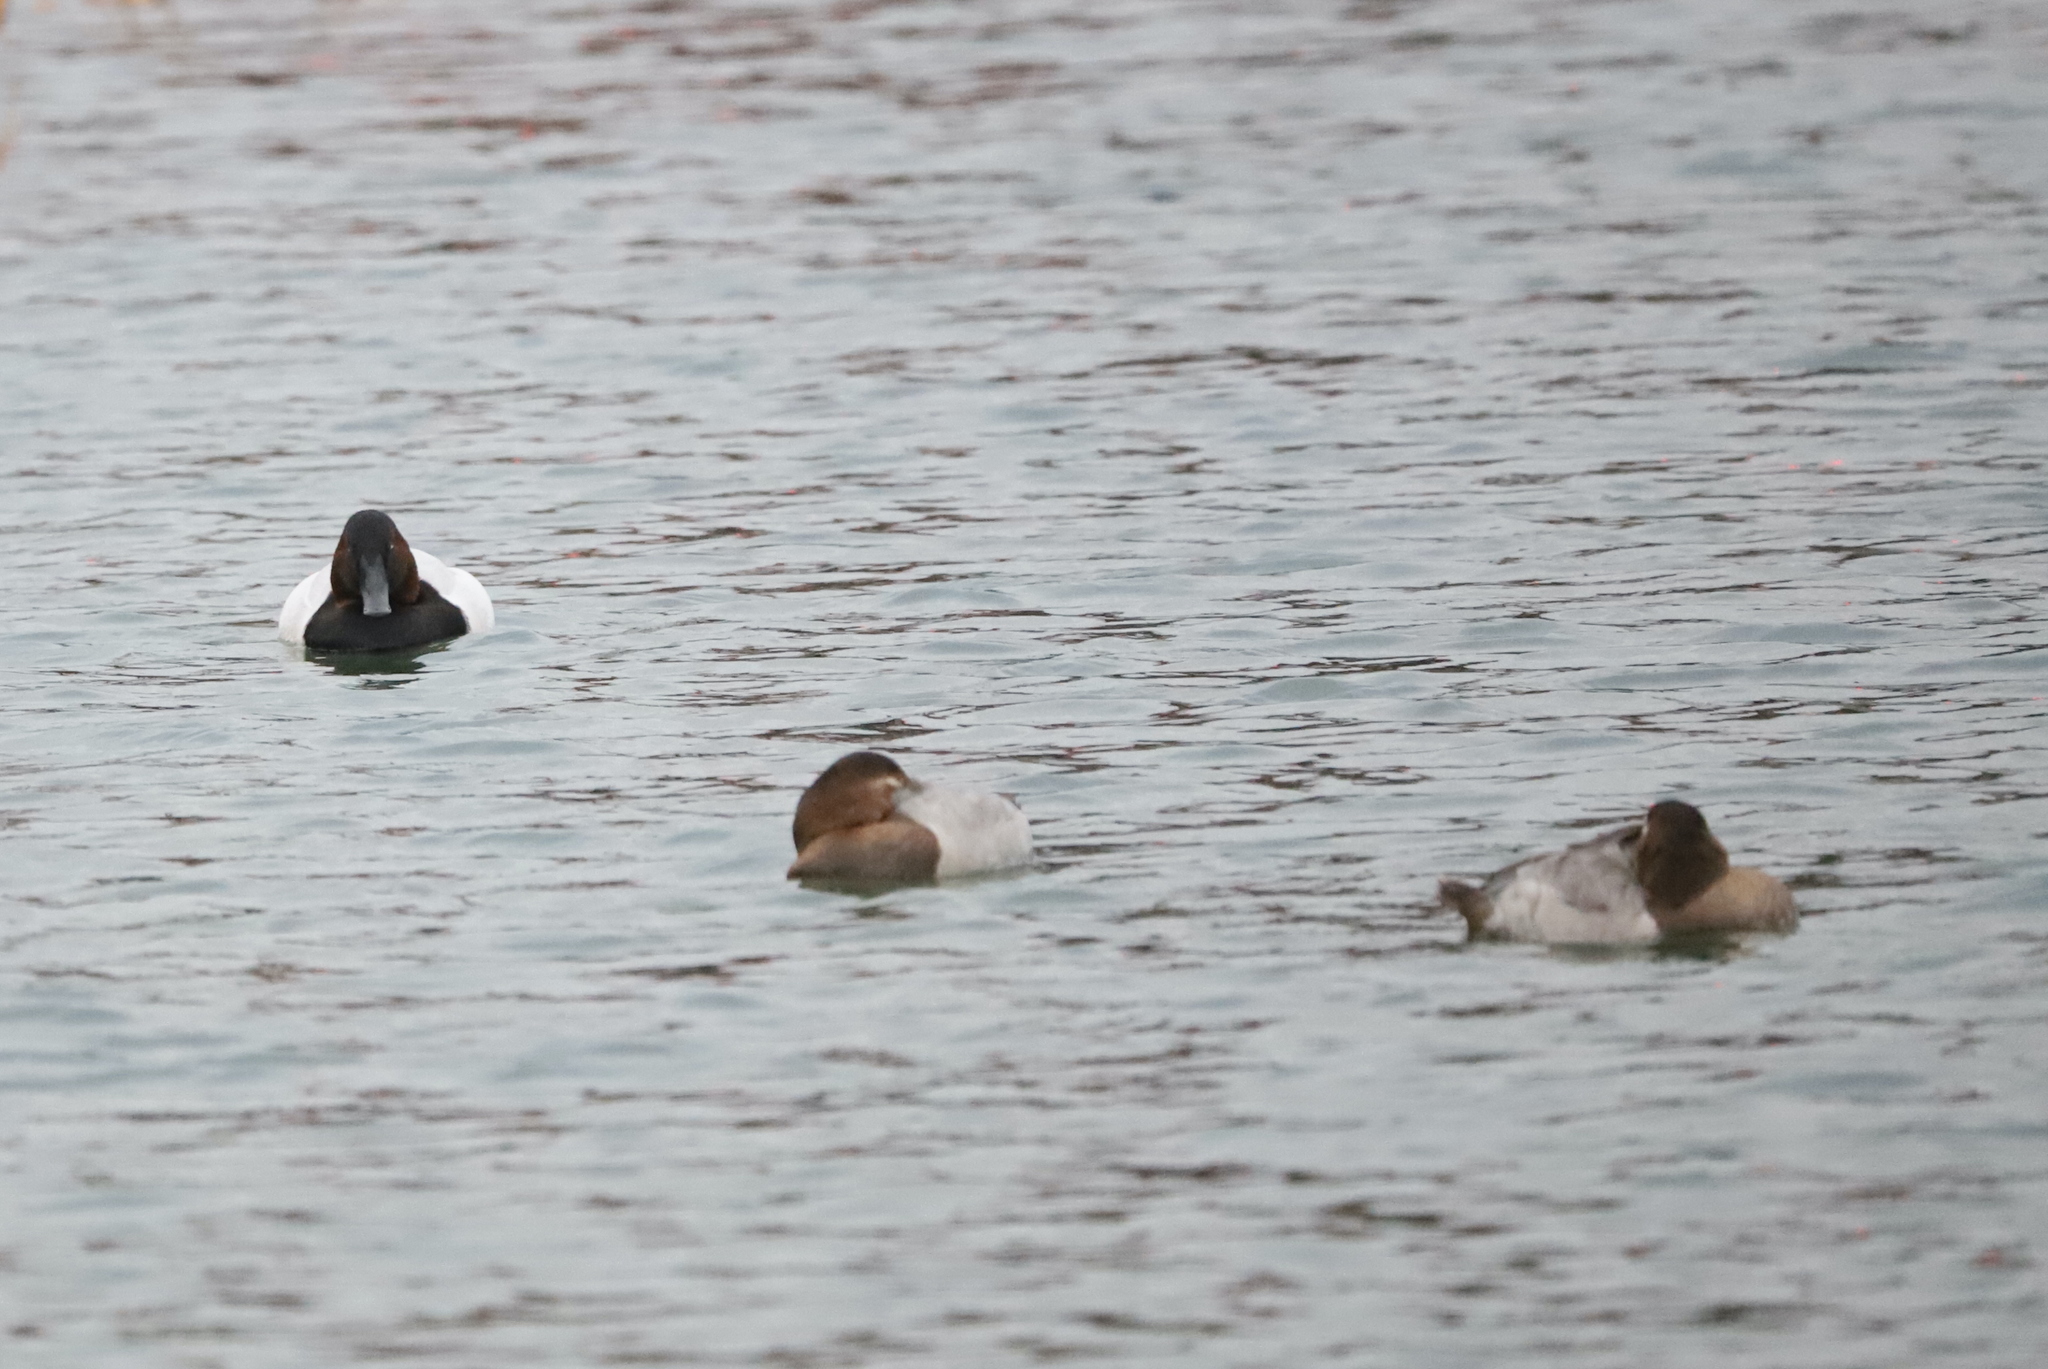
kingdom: Animalia
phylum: Chordata
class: Aves
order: Anseriformes
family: Anatidae
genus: Aythya
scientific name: Aythya valisineria
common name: Canvasback
